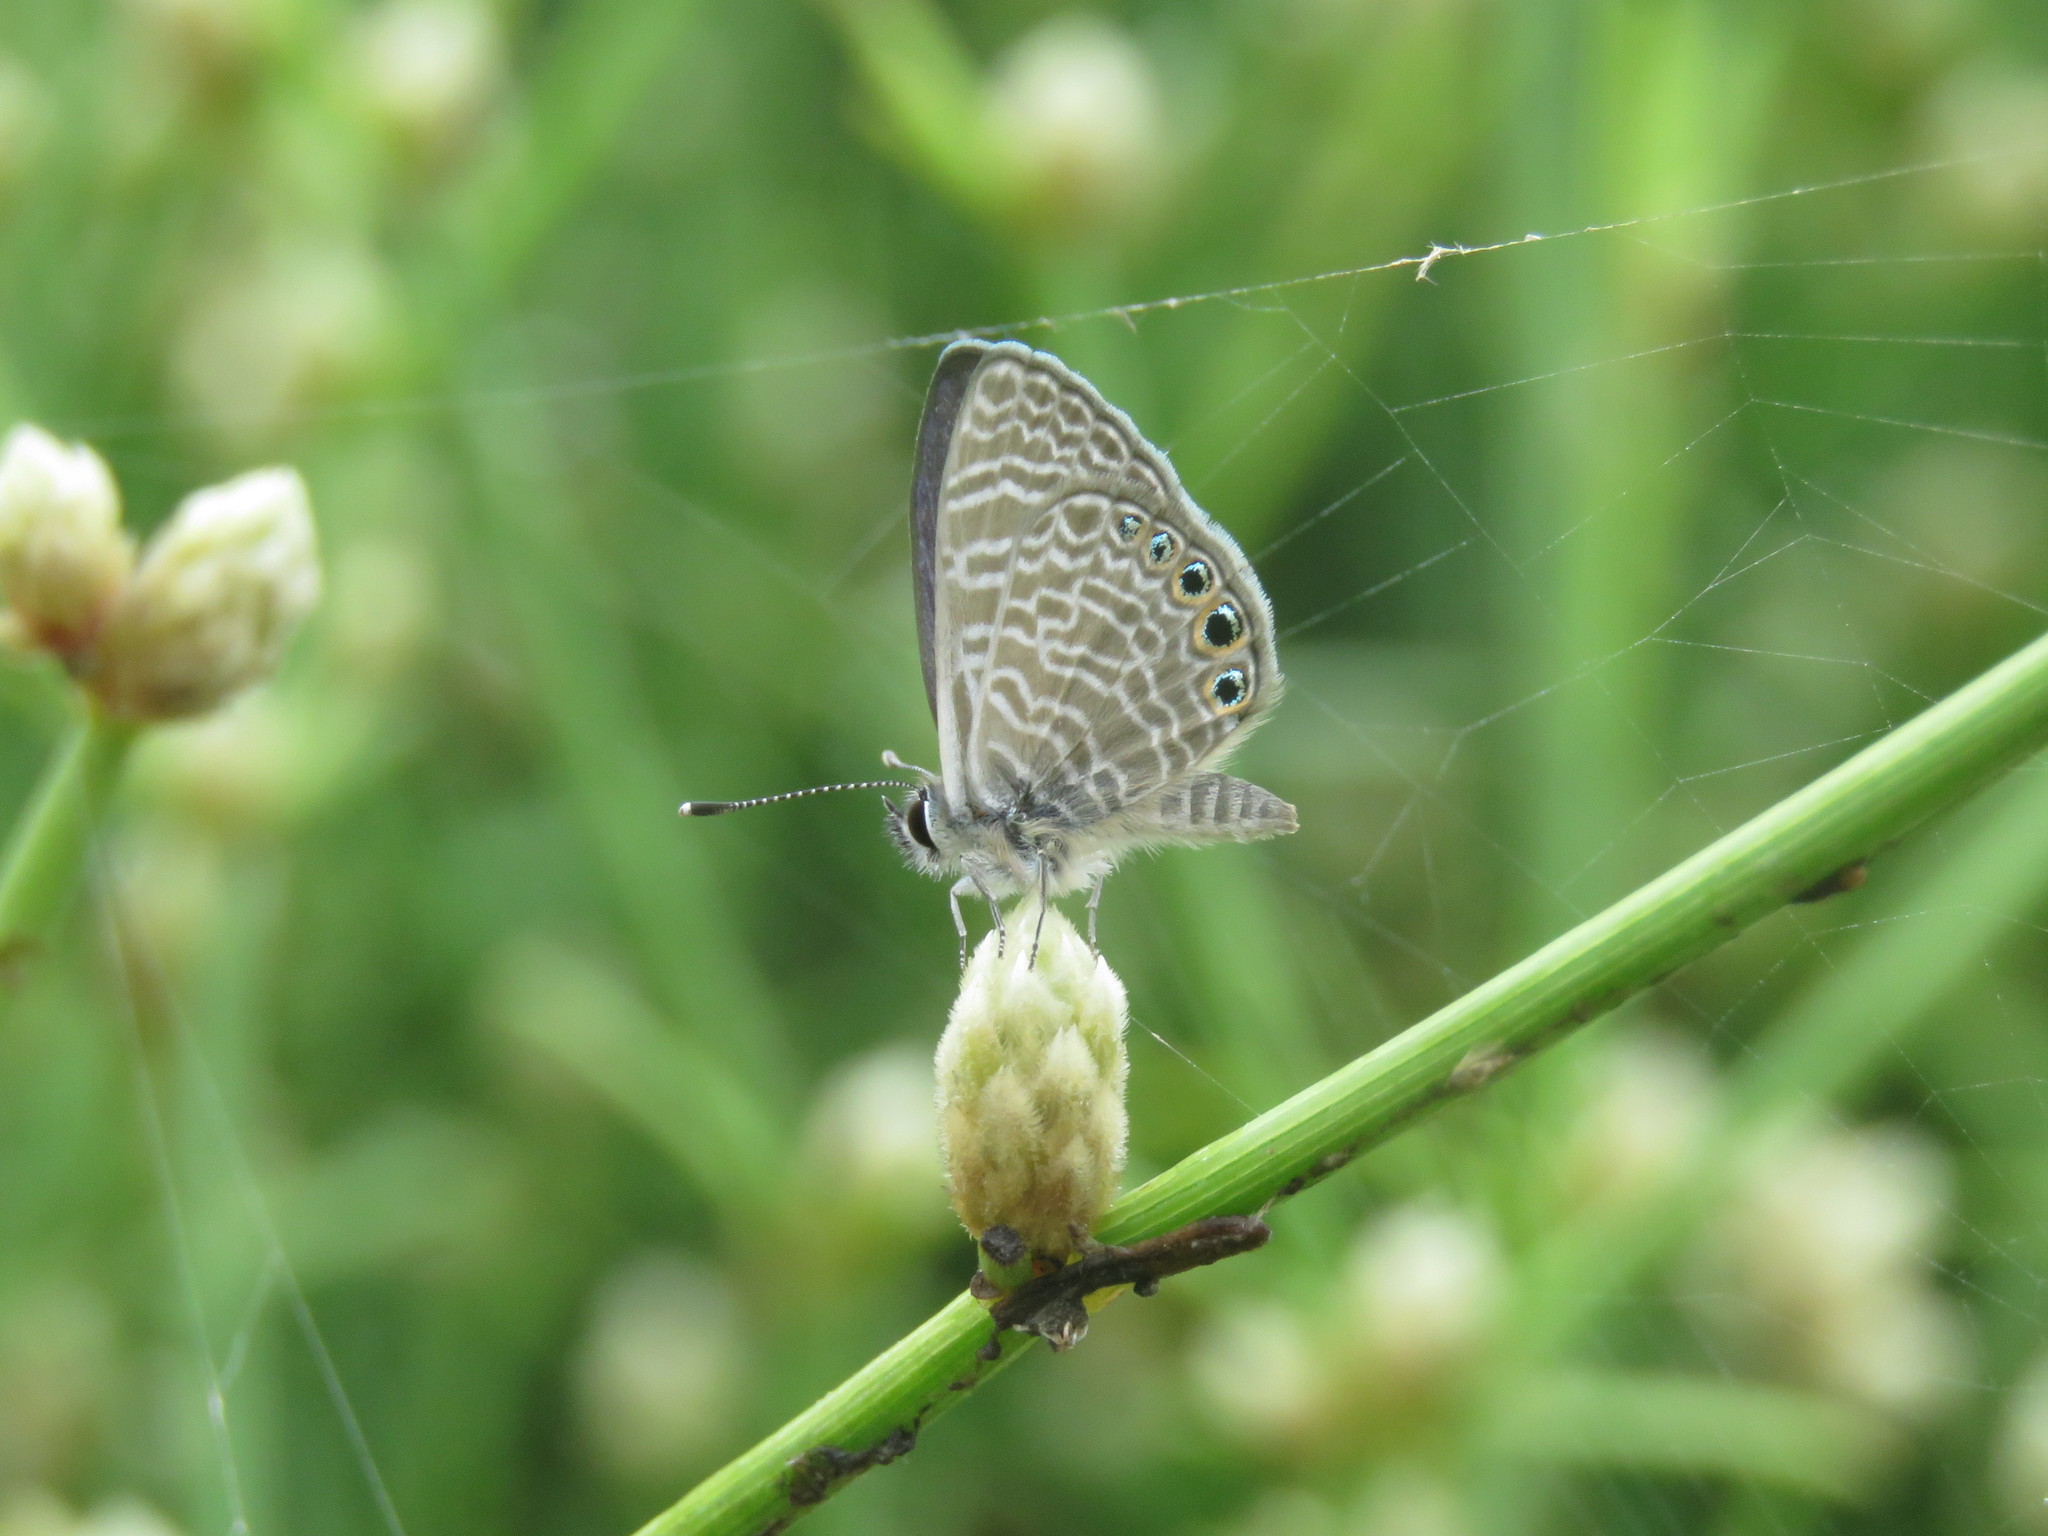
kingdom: Animalia
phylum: Arthropoda
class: Insecta
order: Lepidoptera
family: Lycaenidae
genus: Leptotes
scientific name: Leptotes
